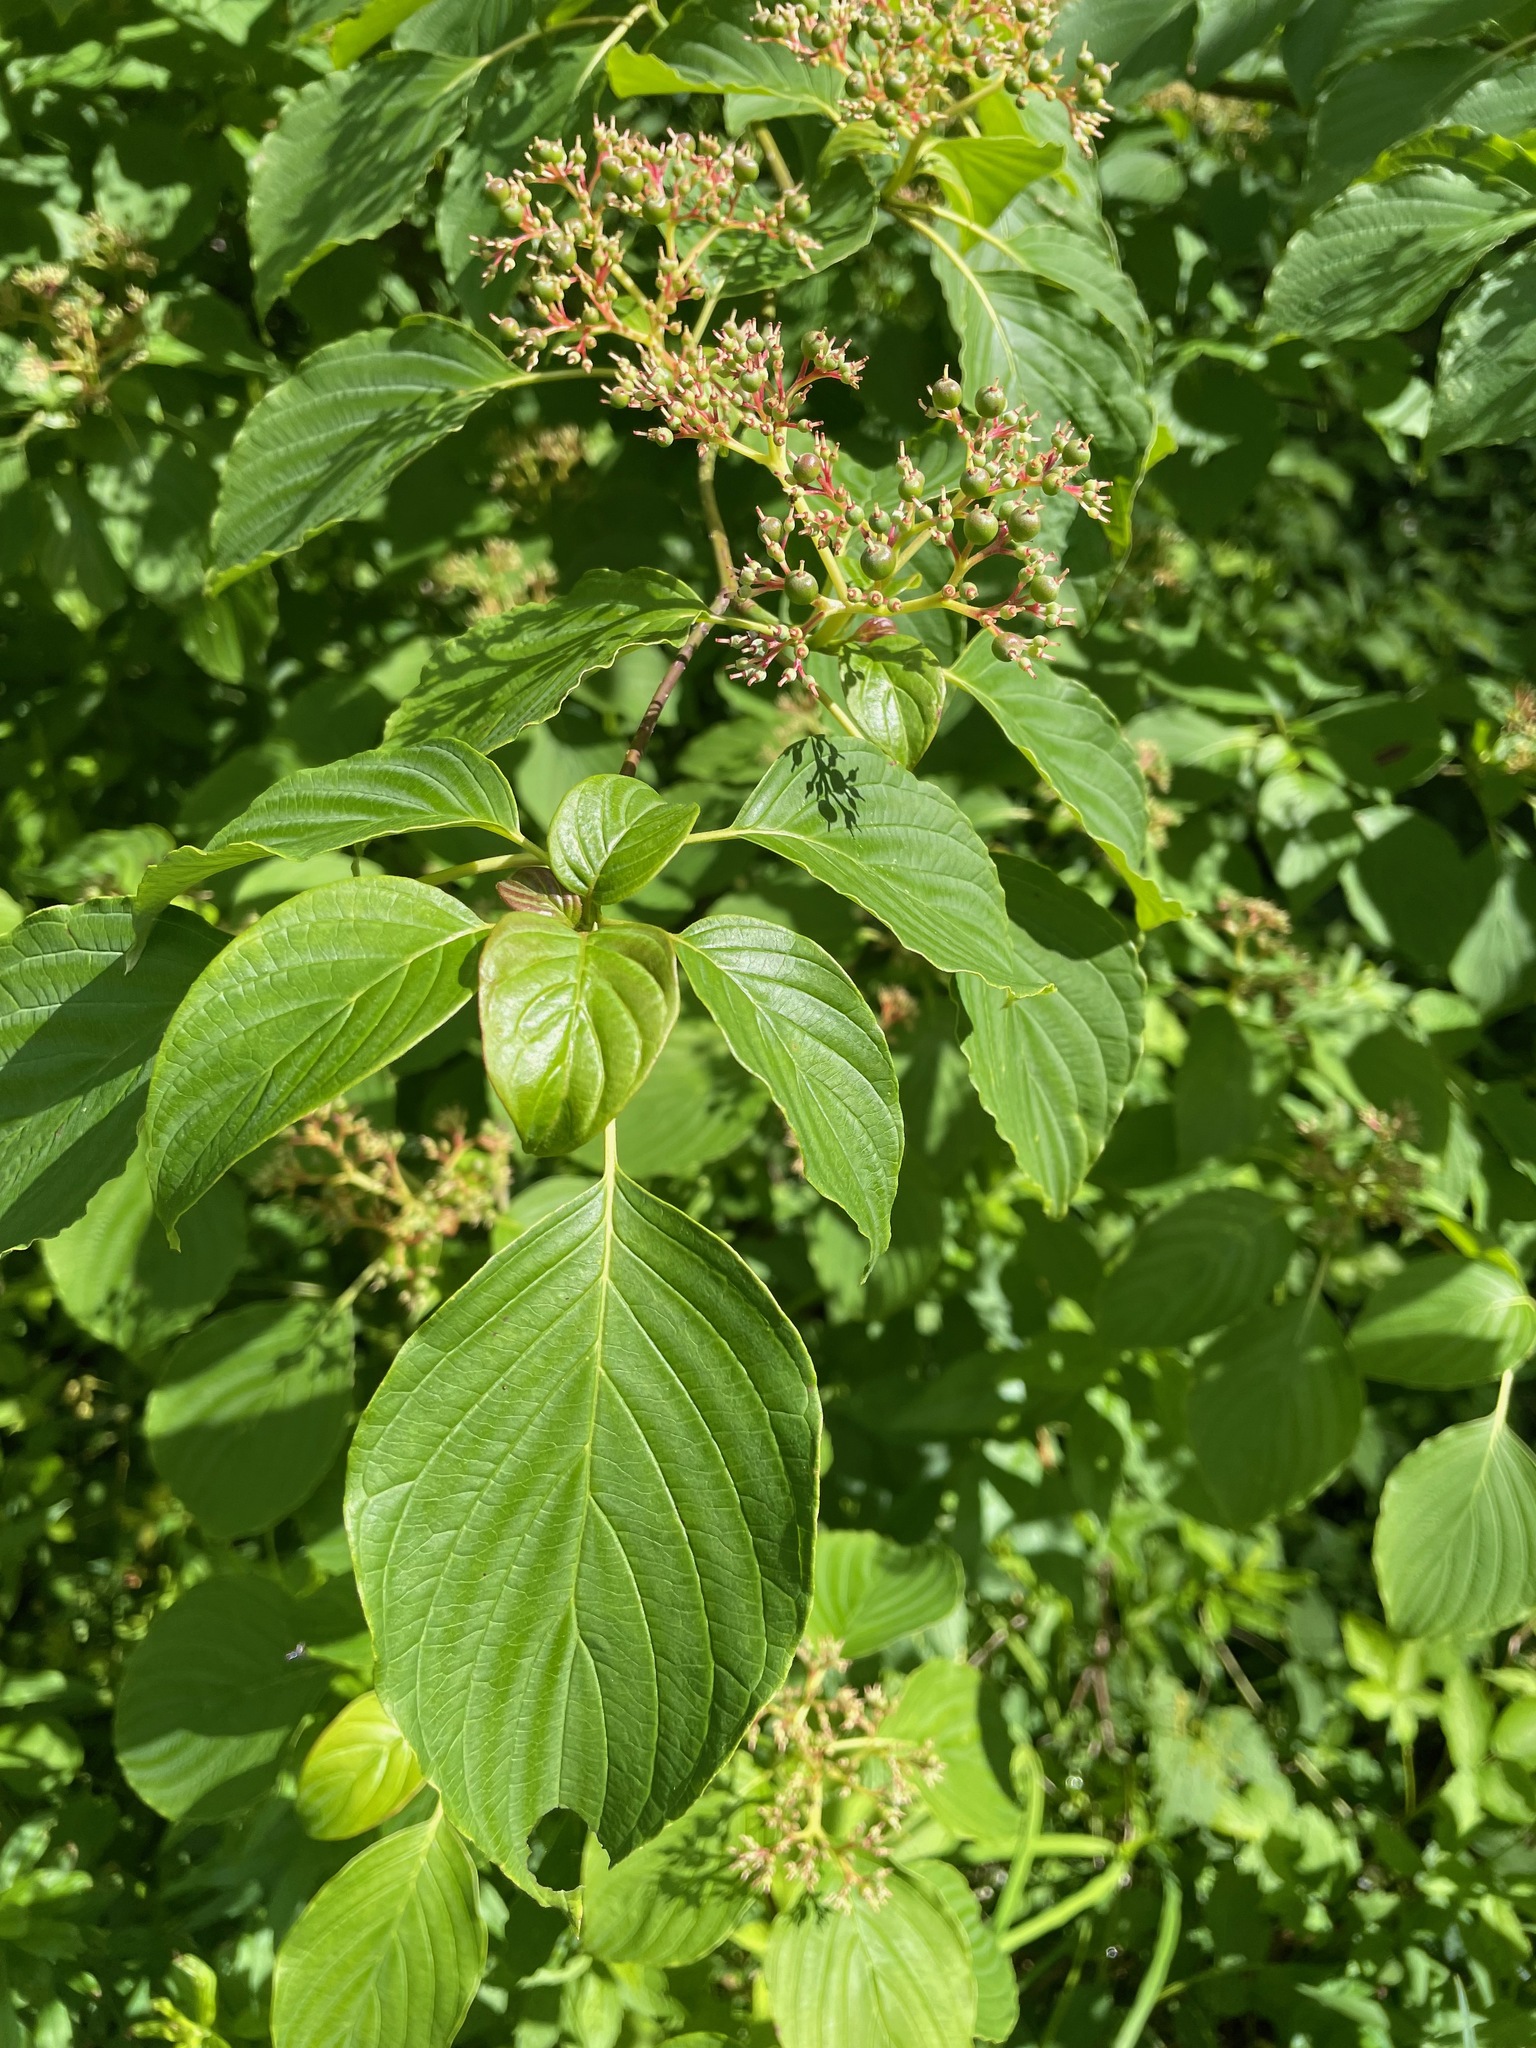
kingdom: Plantae
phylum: Tracheophyta
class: Magnoliopsida
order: Cornales
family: Cornaceae
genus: Cornus
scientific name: Cornus alternifolia
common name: Pagoda dogwood
